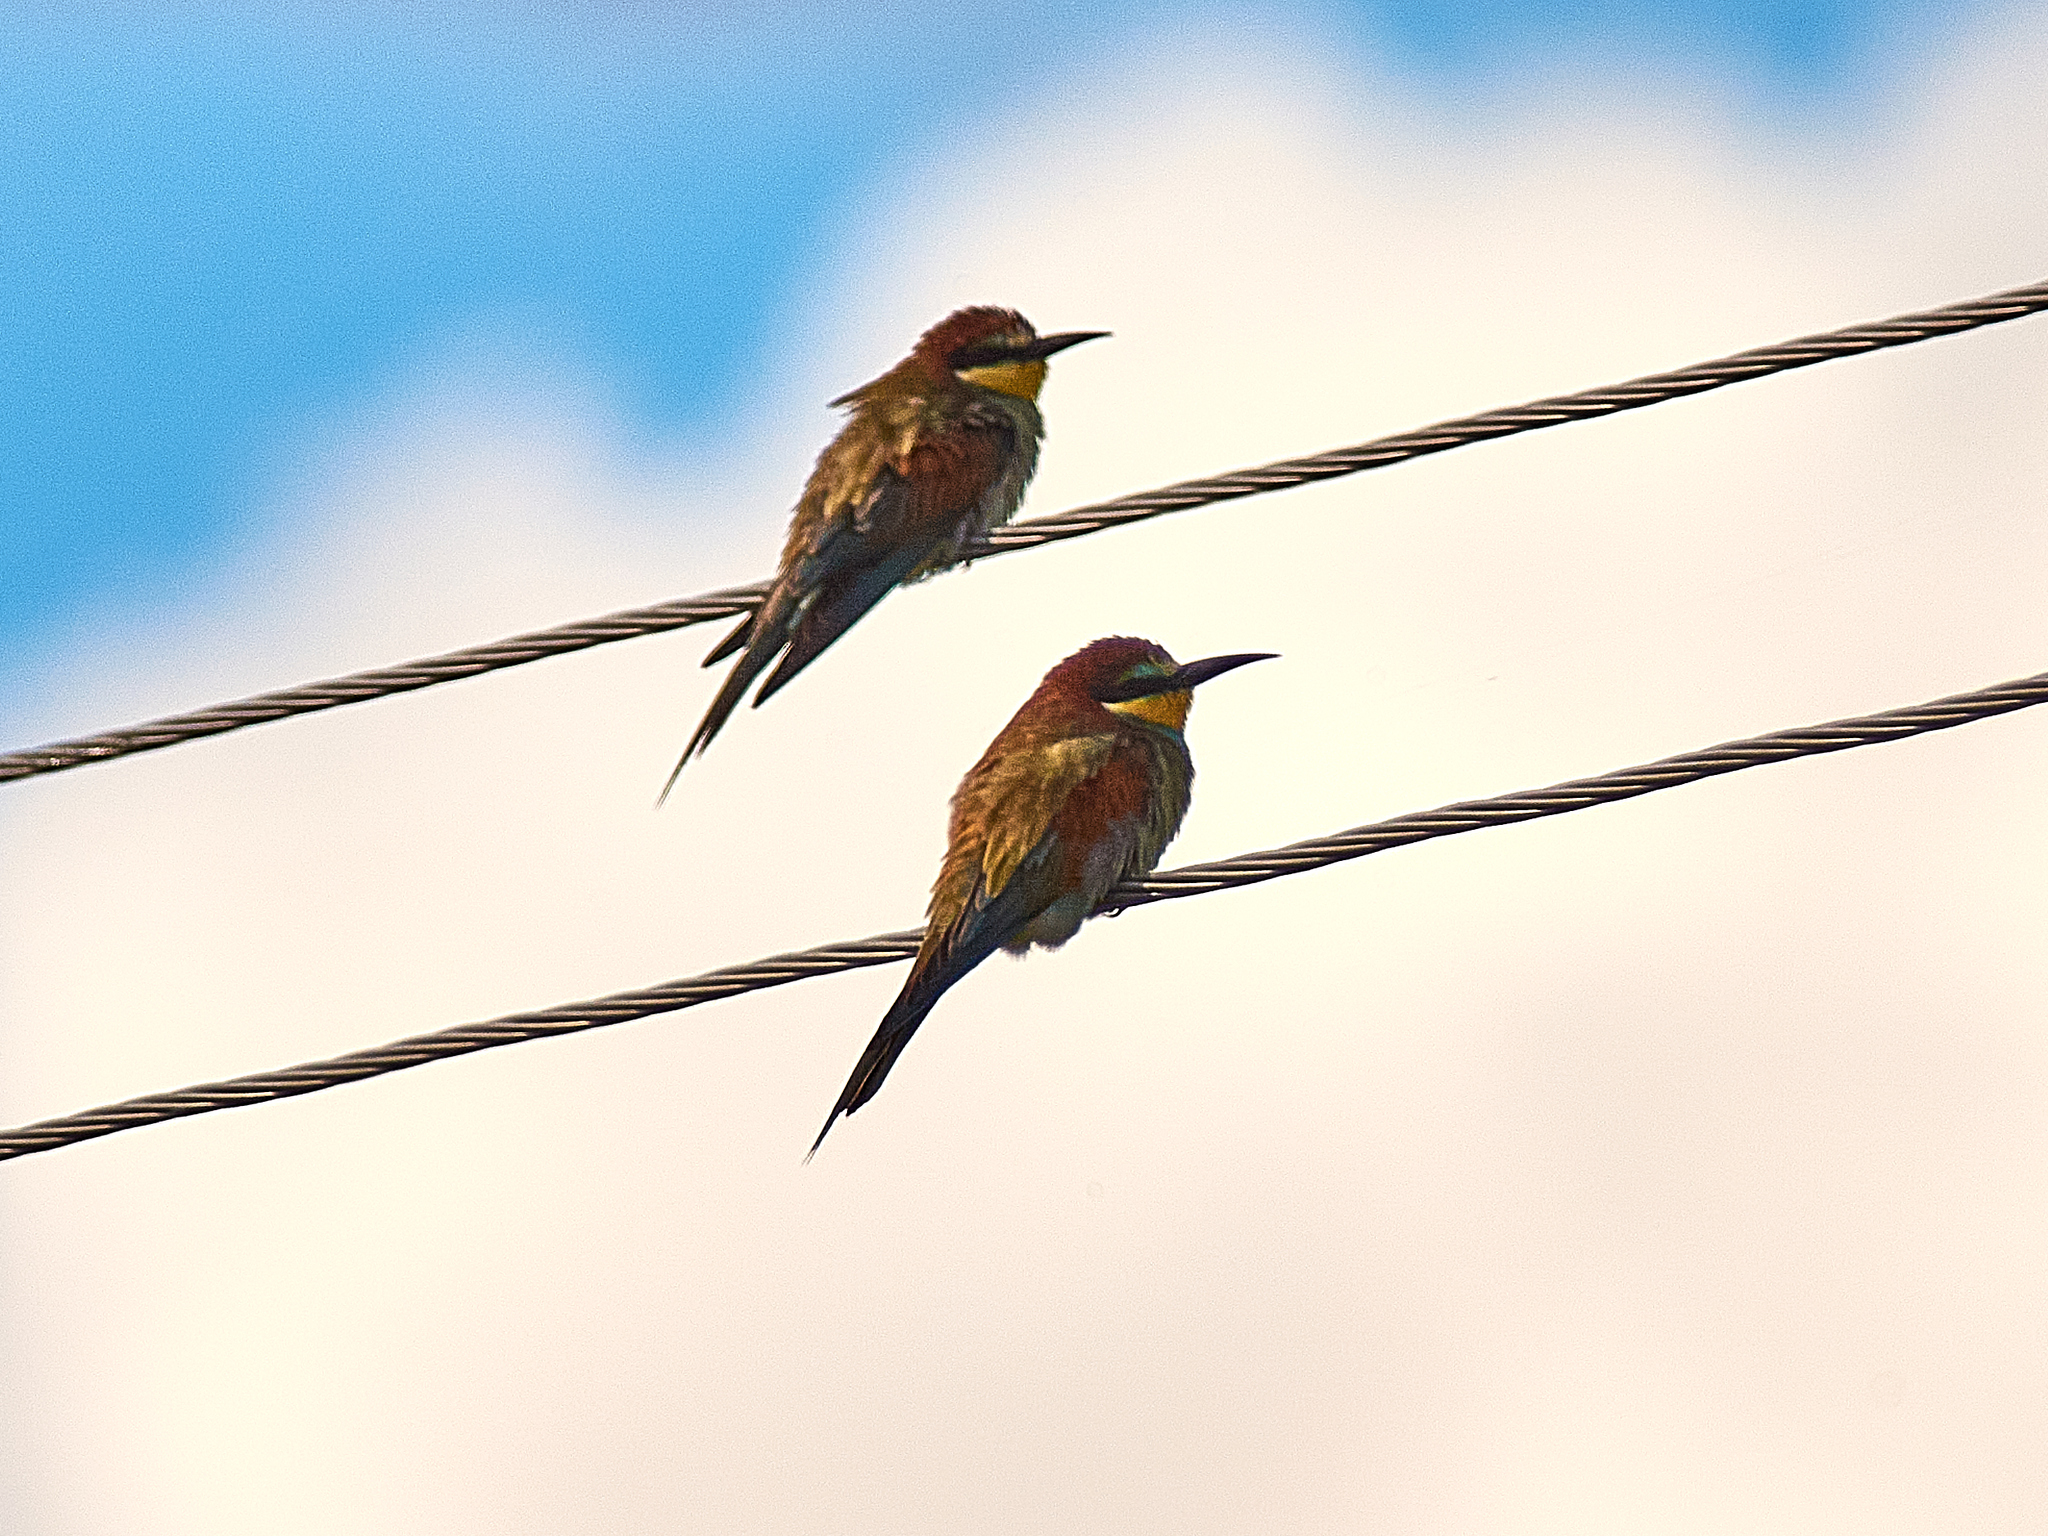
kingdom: Animalia
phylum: Chordata
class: Aves
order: Coraciiformes
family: Meropidae
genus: Merops
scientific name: Merops apiaster
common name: European bee-eater
